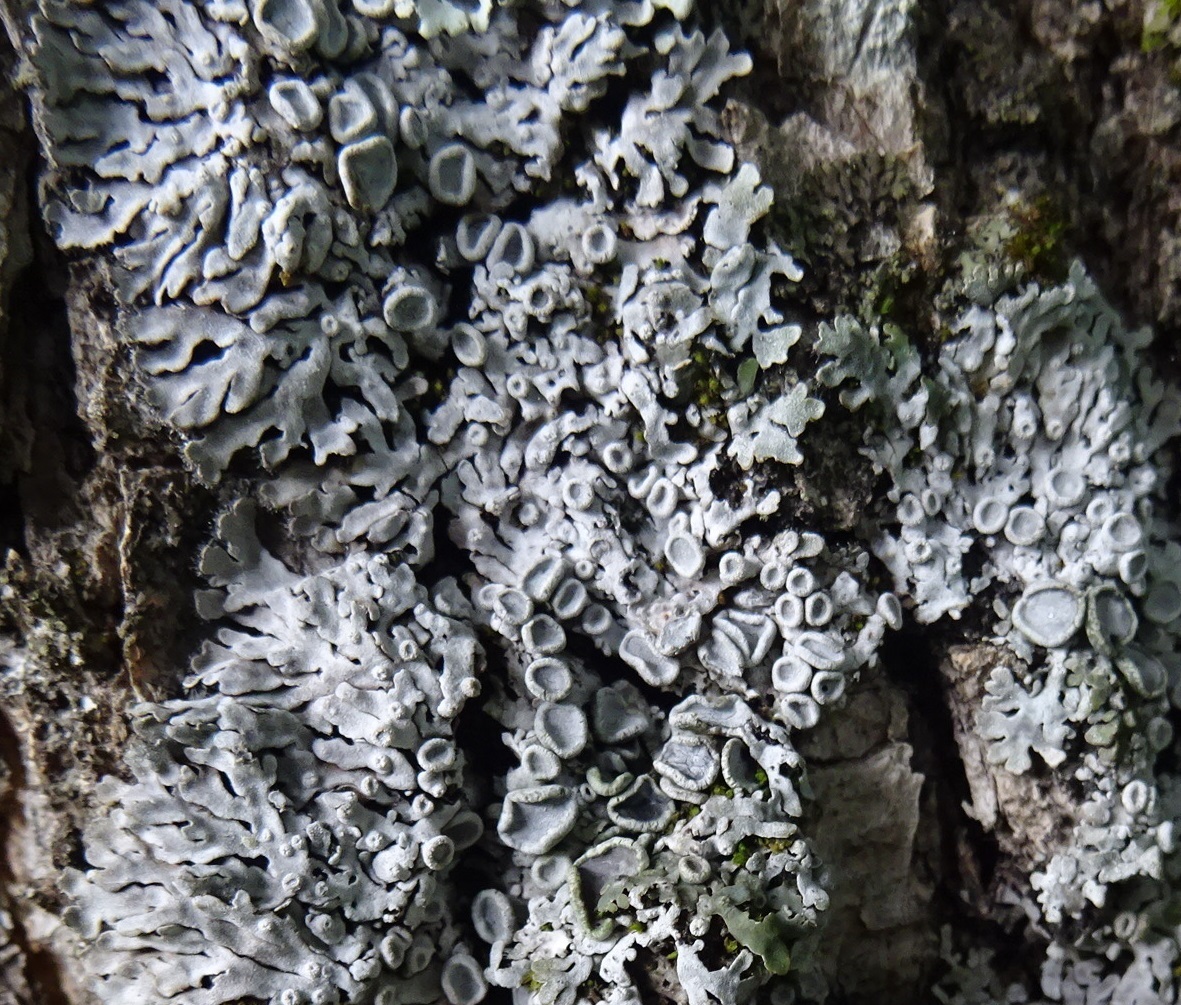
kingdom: Fungi
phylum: Ascomycota
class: Lecanoromycetes
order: Caliciales
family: Physciaceae
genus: Physconia
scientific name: Physconia distorta
